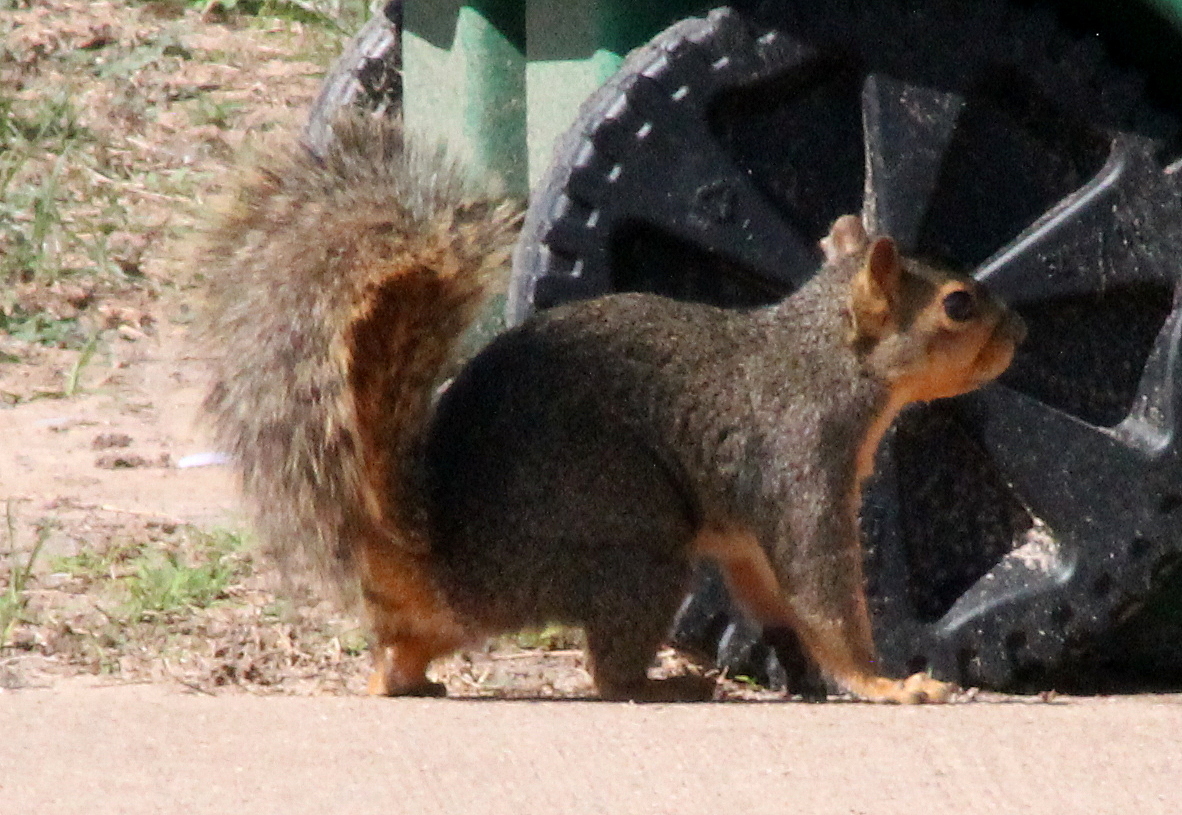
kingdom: Animalia
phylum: Chordata
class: Mammalia
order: Rodentia
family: Sciuridae
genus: Sciurus
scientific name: Sciurus niger
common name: Fox squirrel
